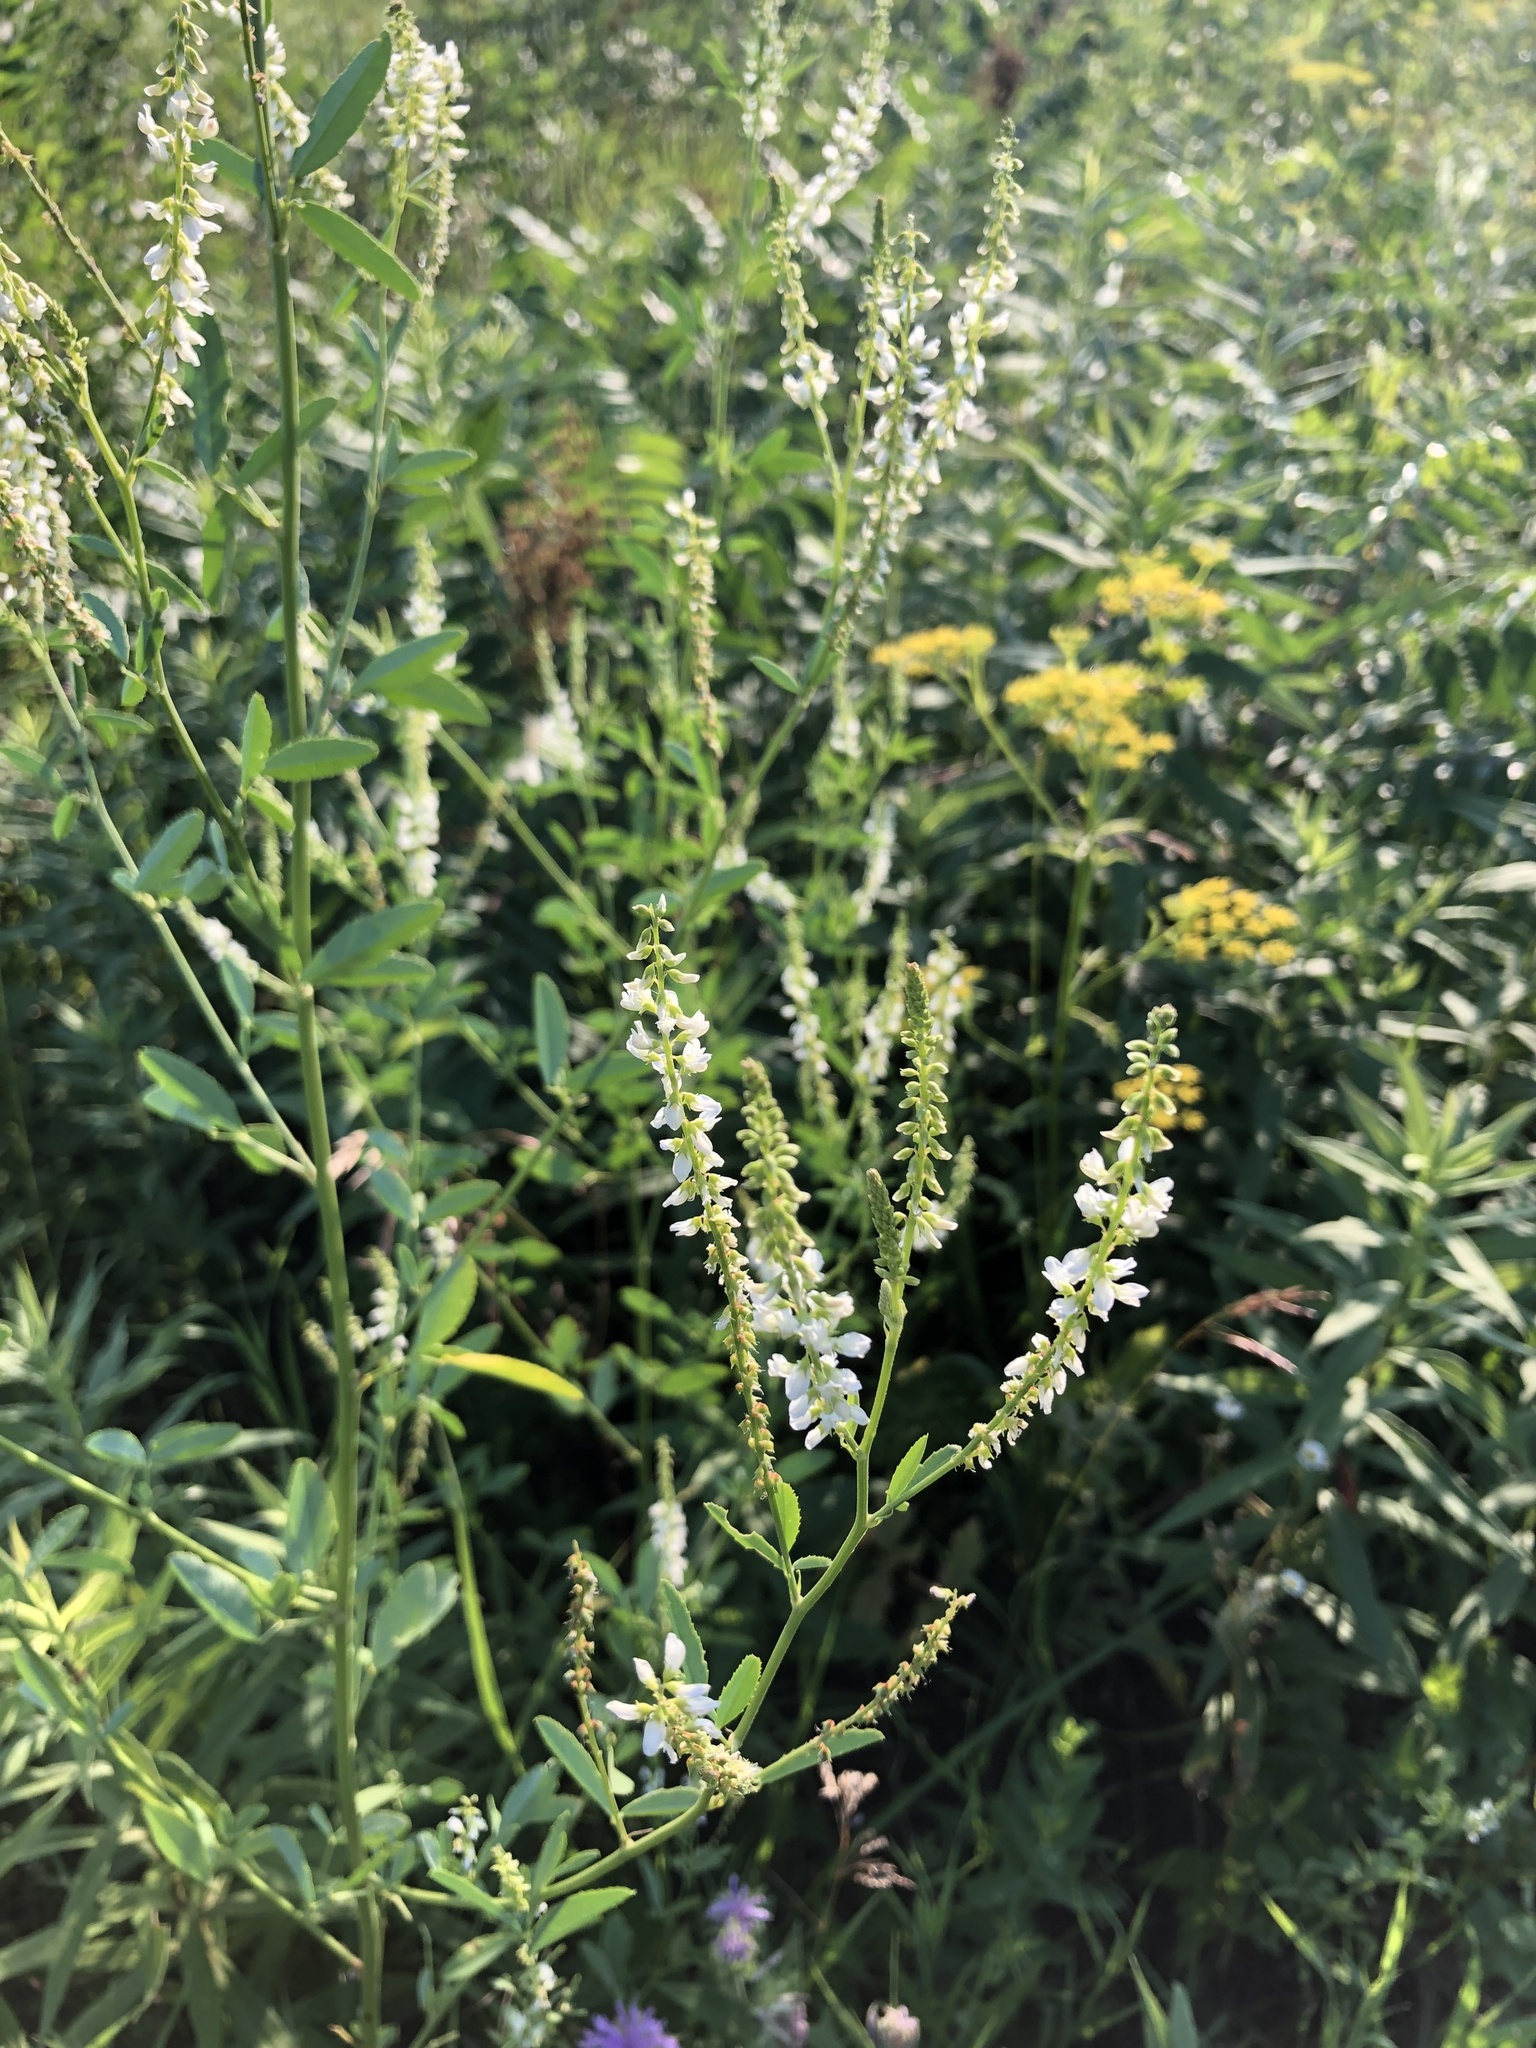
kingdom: Plantae
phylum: Tracheophyta
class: Magnoliopsida
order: Fabales
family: Fabaceae
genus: Melilotus
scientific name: Melilotus albus
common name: White melilot
